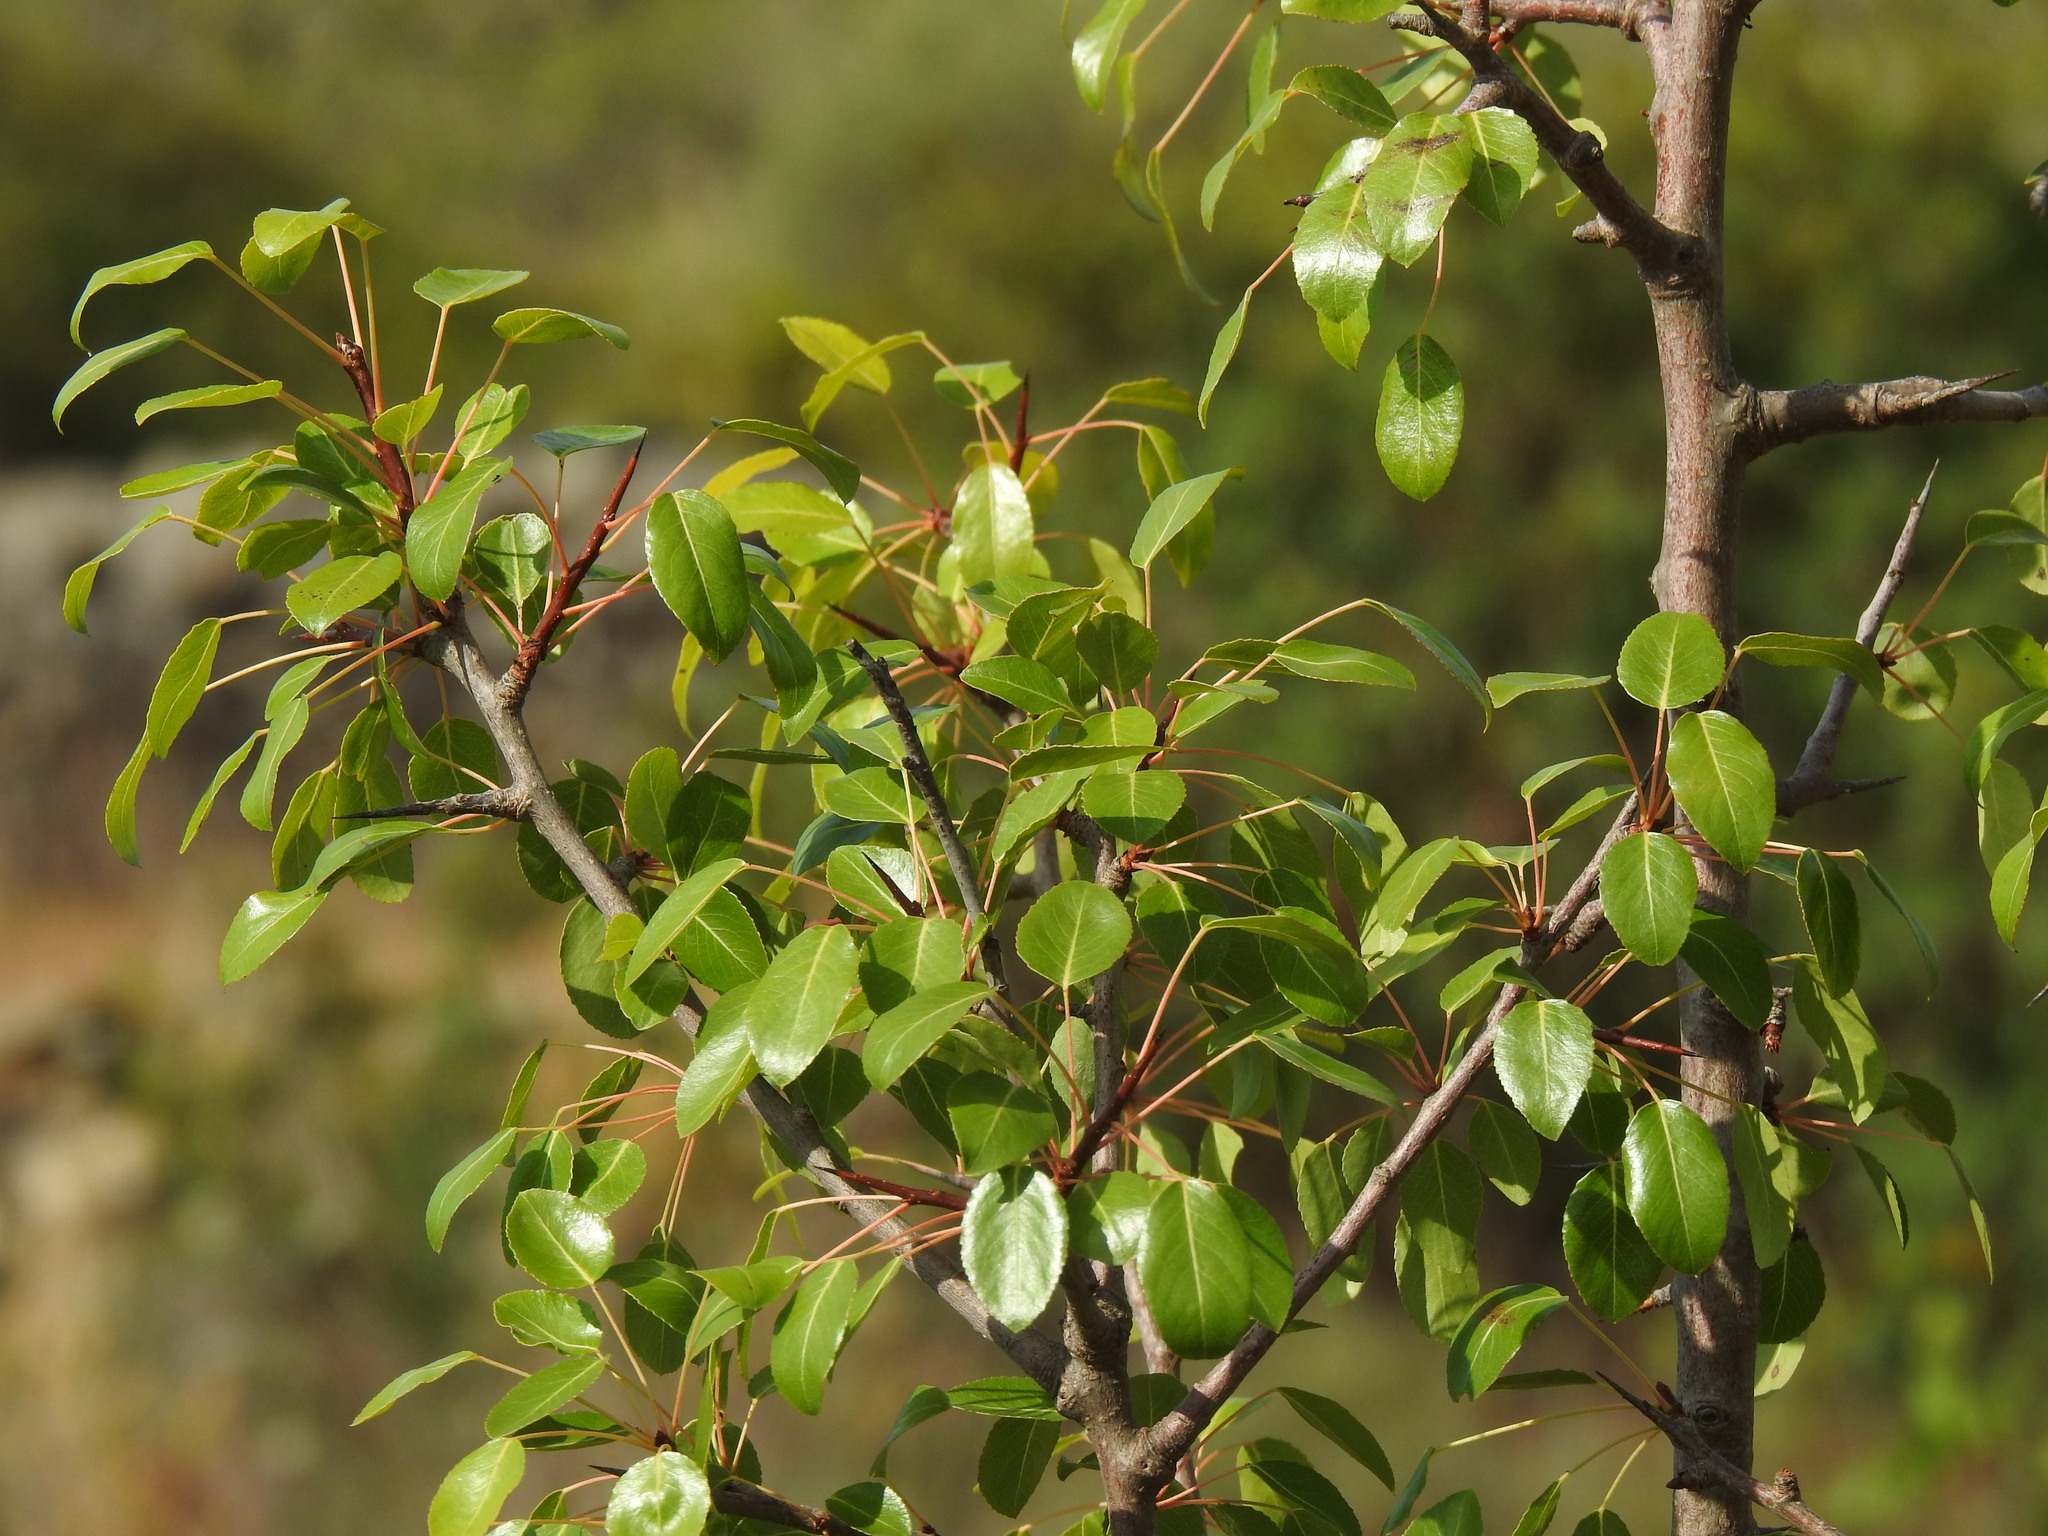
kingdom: Plantae
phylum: Tracheophyta
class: Magnoliopsida
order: Rosales
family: Rosaceae
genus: Pyrus
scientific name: Pyrus bourgaeana
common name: Iberian pear
